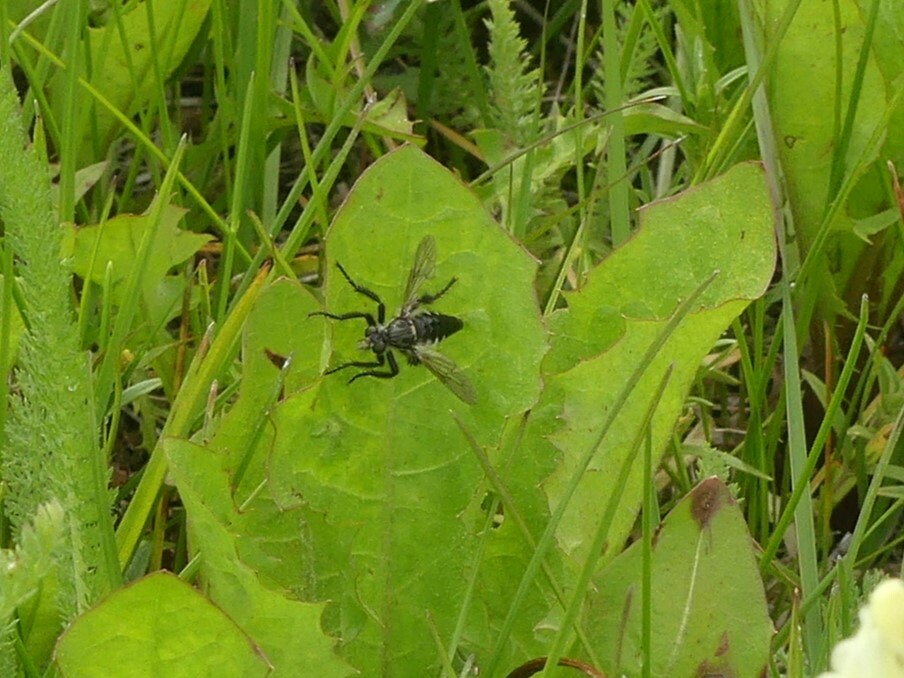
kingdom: Animalia
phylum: Arthropoda
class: Insecta
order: Diptera
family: Asilidae
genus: Cyrtopogon
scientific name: Cyrtopogon willistoni
